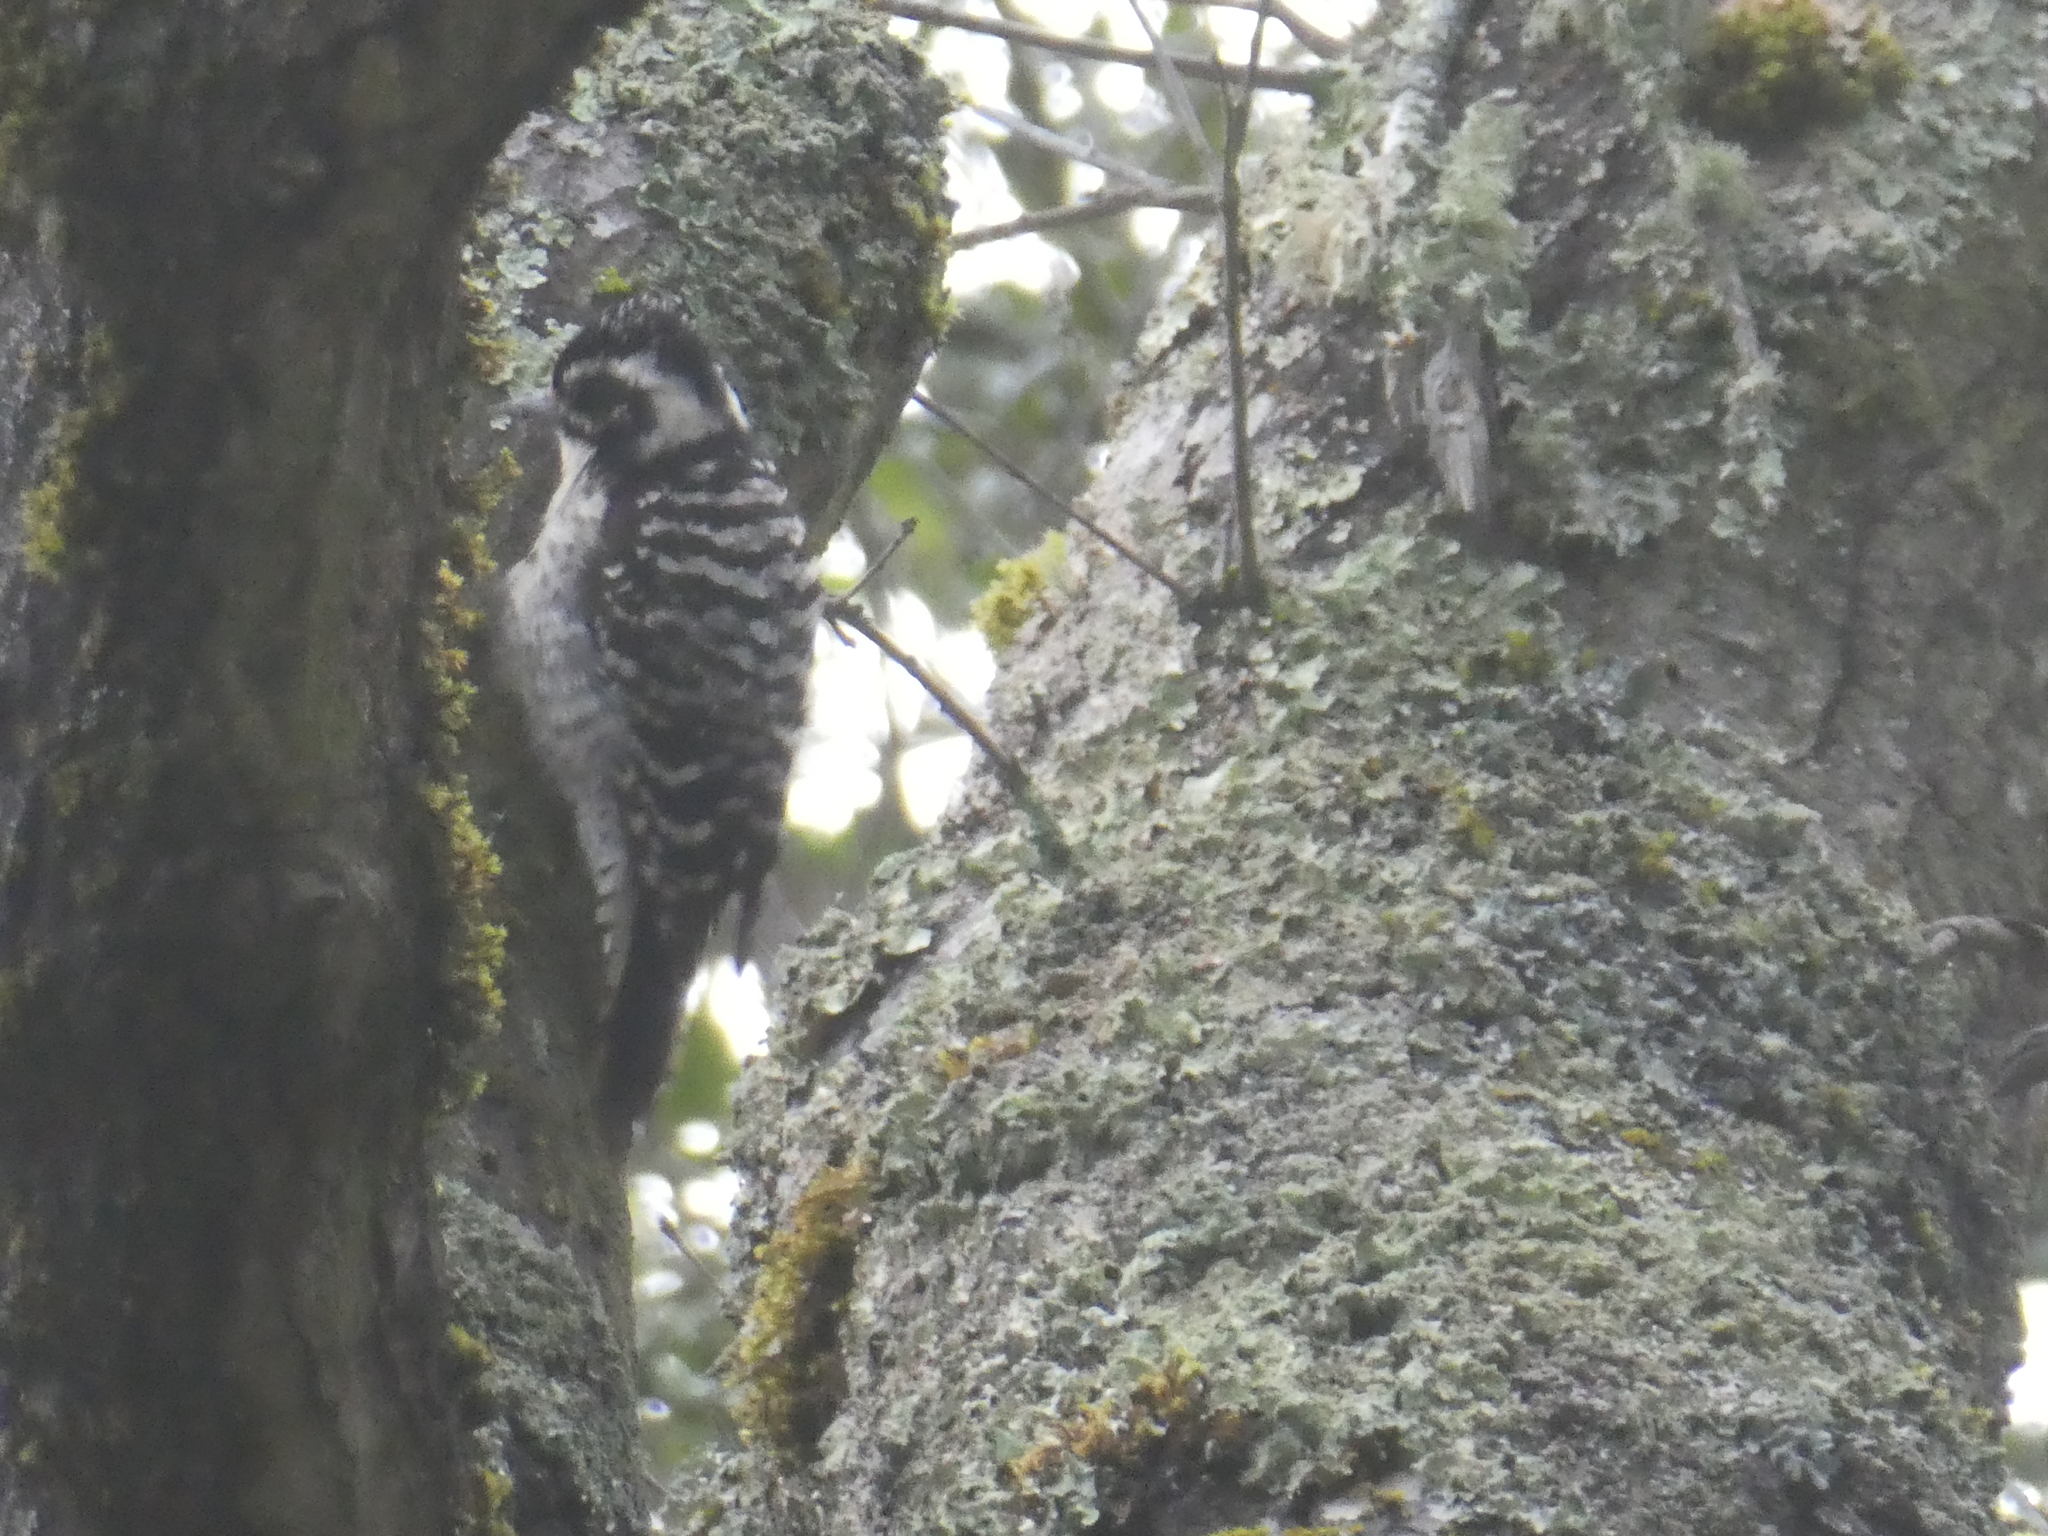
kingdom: Animalia
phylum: Chordata
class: Aves
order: Piciformes
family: Picidae
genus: Dryobates
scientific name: Dryobates nuttallii
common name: Nuttall's woodpecker
